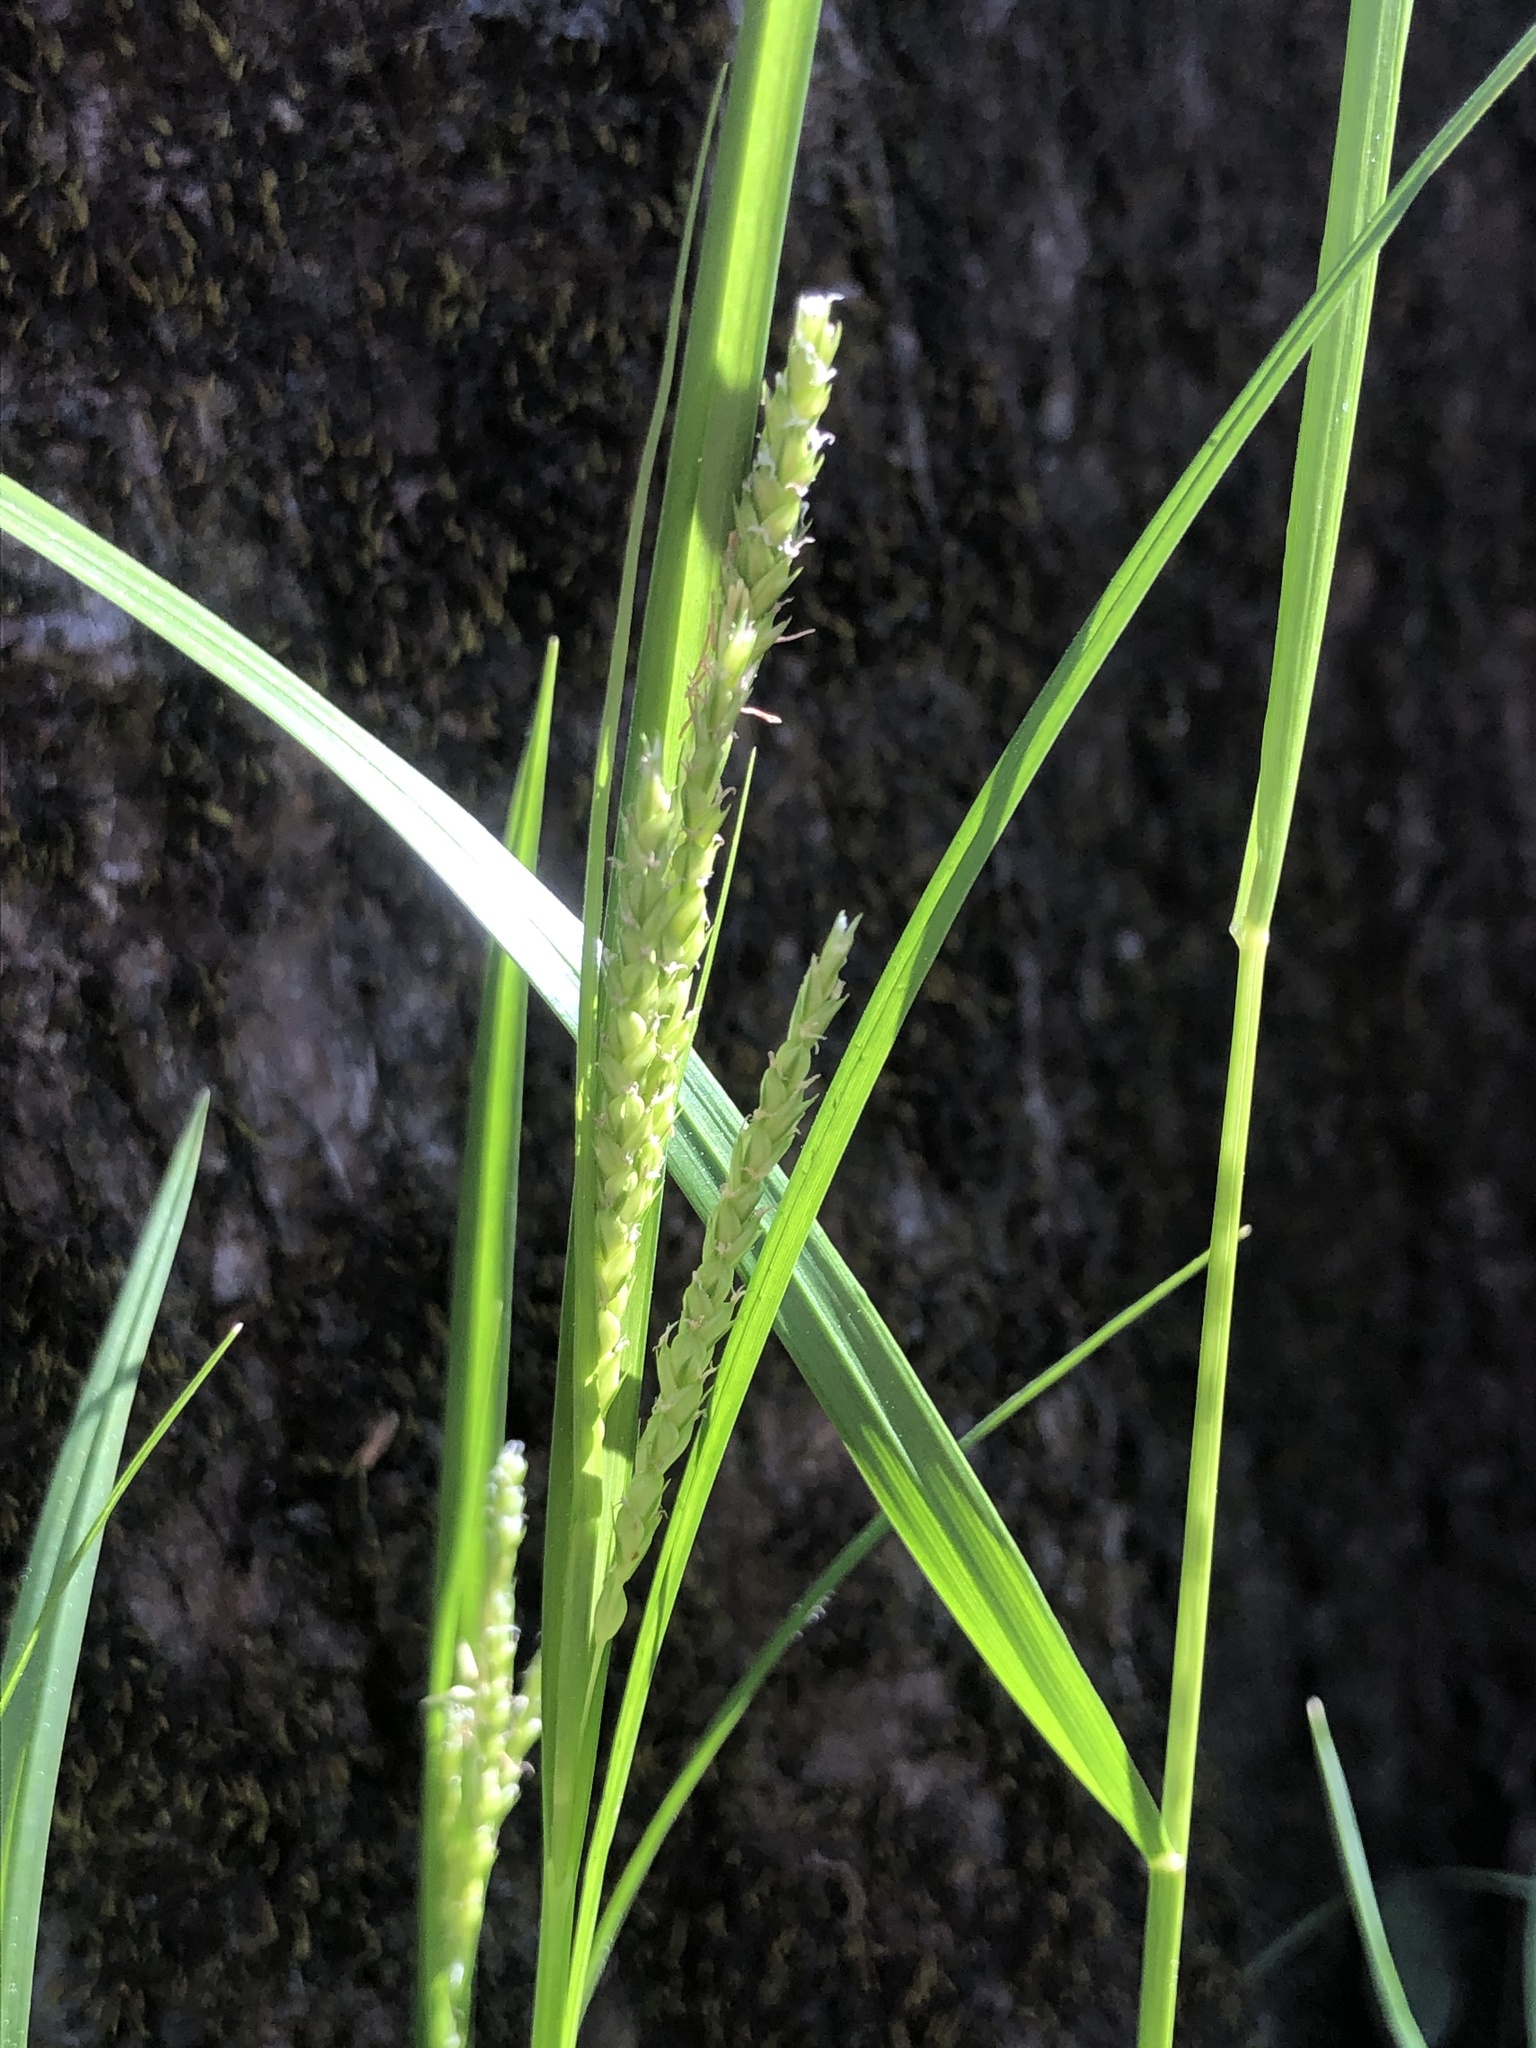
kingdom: Plantae
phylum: Tracheophyta
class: Liliopsida
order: Poales
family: Cyperaceae
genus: Carex
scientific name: Carex oxylepis
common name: Sharpscale sedge
